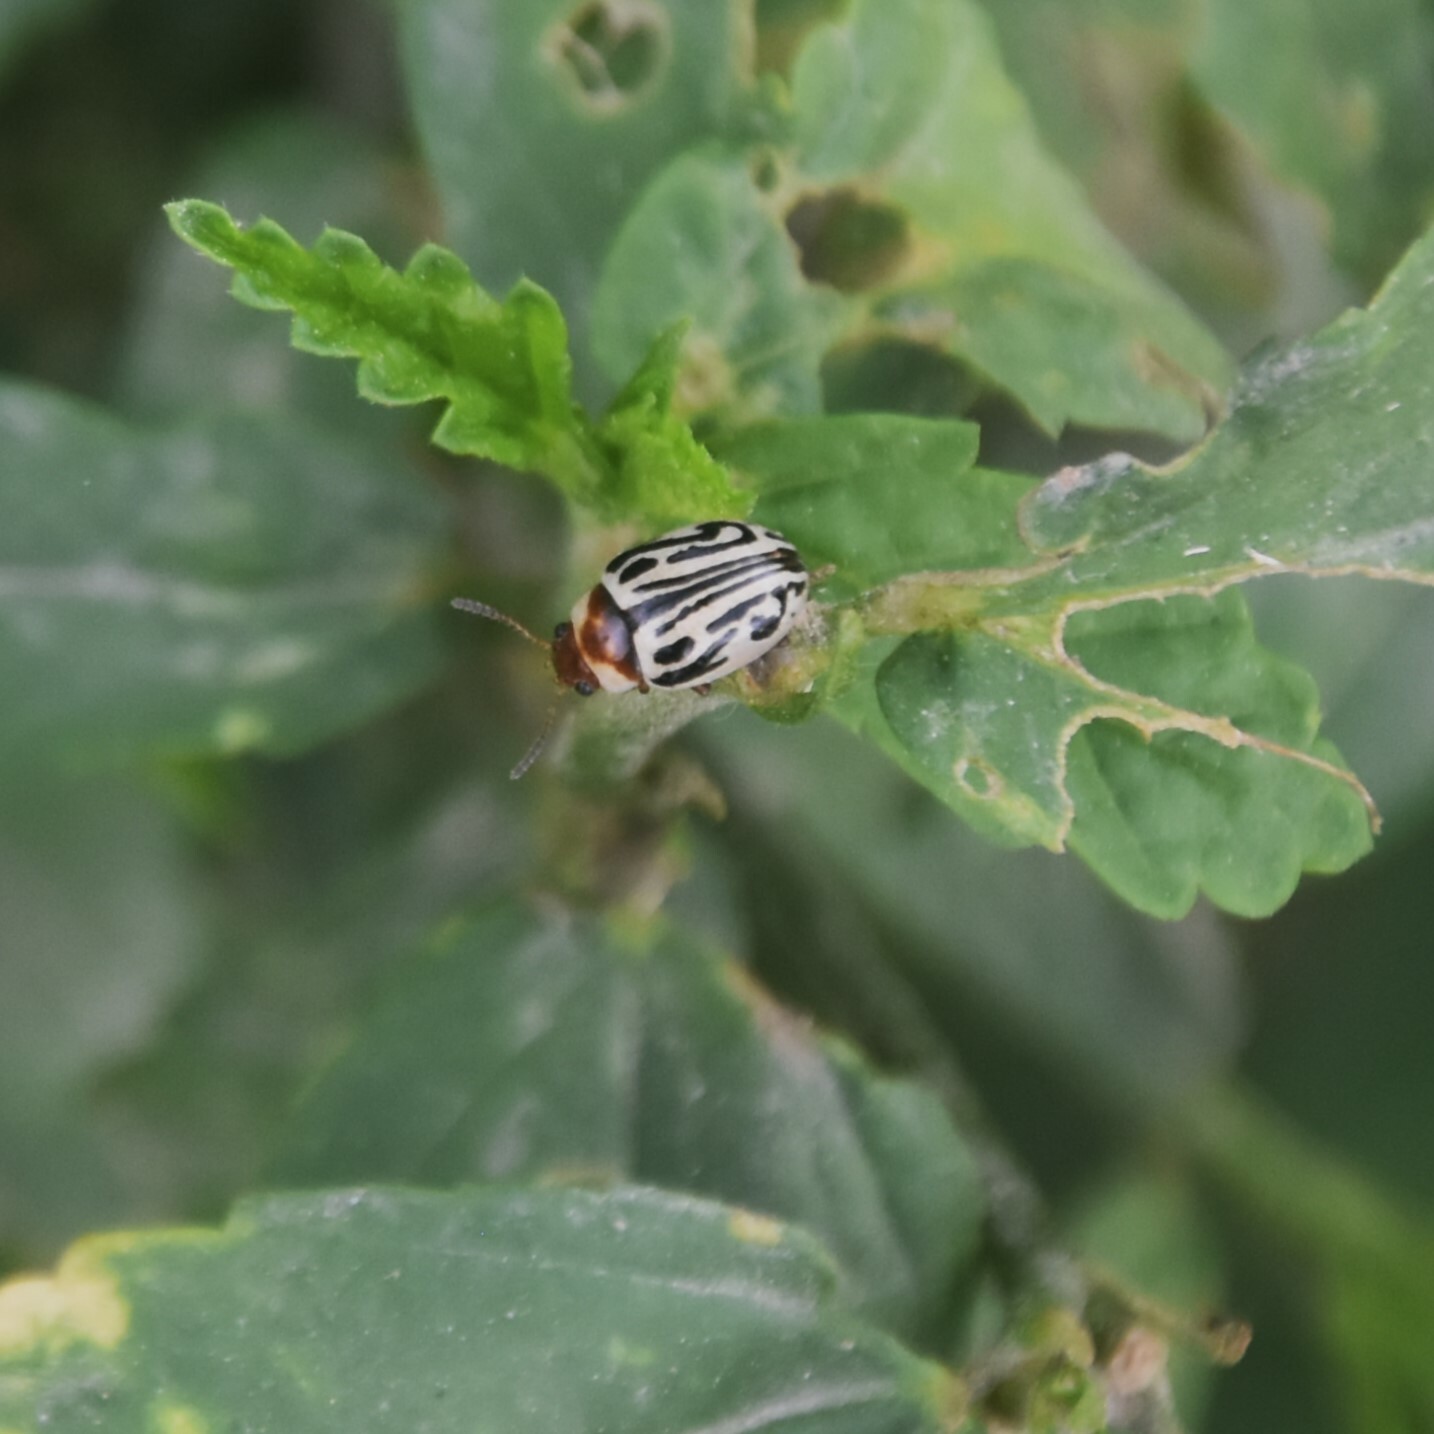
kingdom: Animalia
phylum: Arthropoda
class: Insecta
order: Coleoptera
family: Chrysomelidae
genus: Calligrapha
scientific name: Calligrapha
